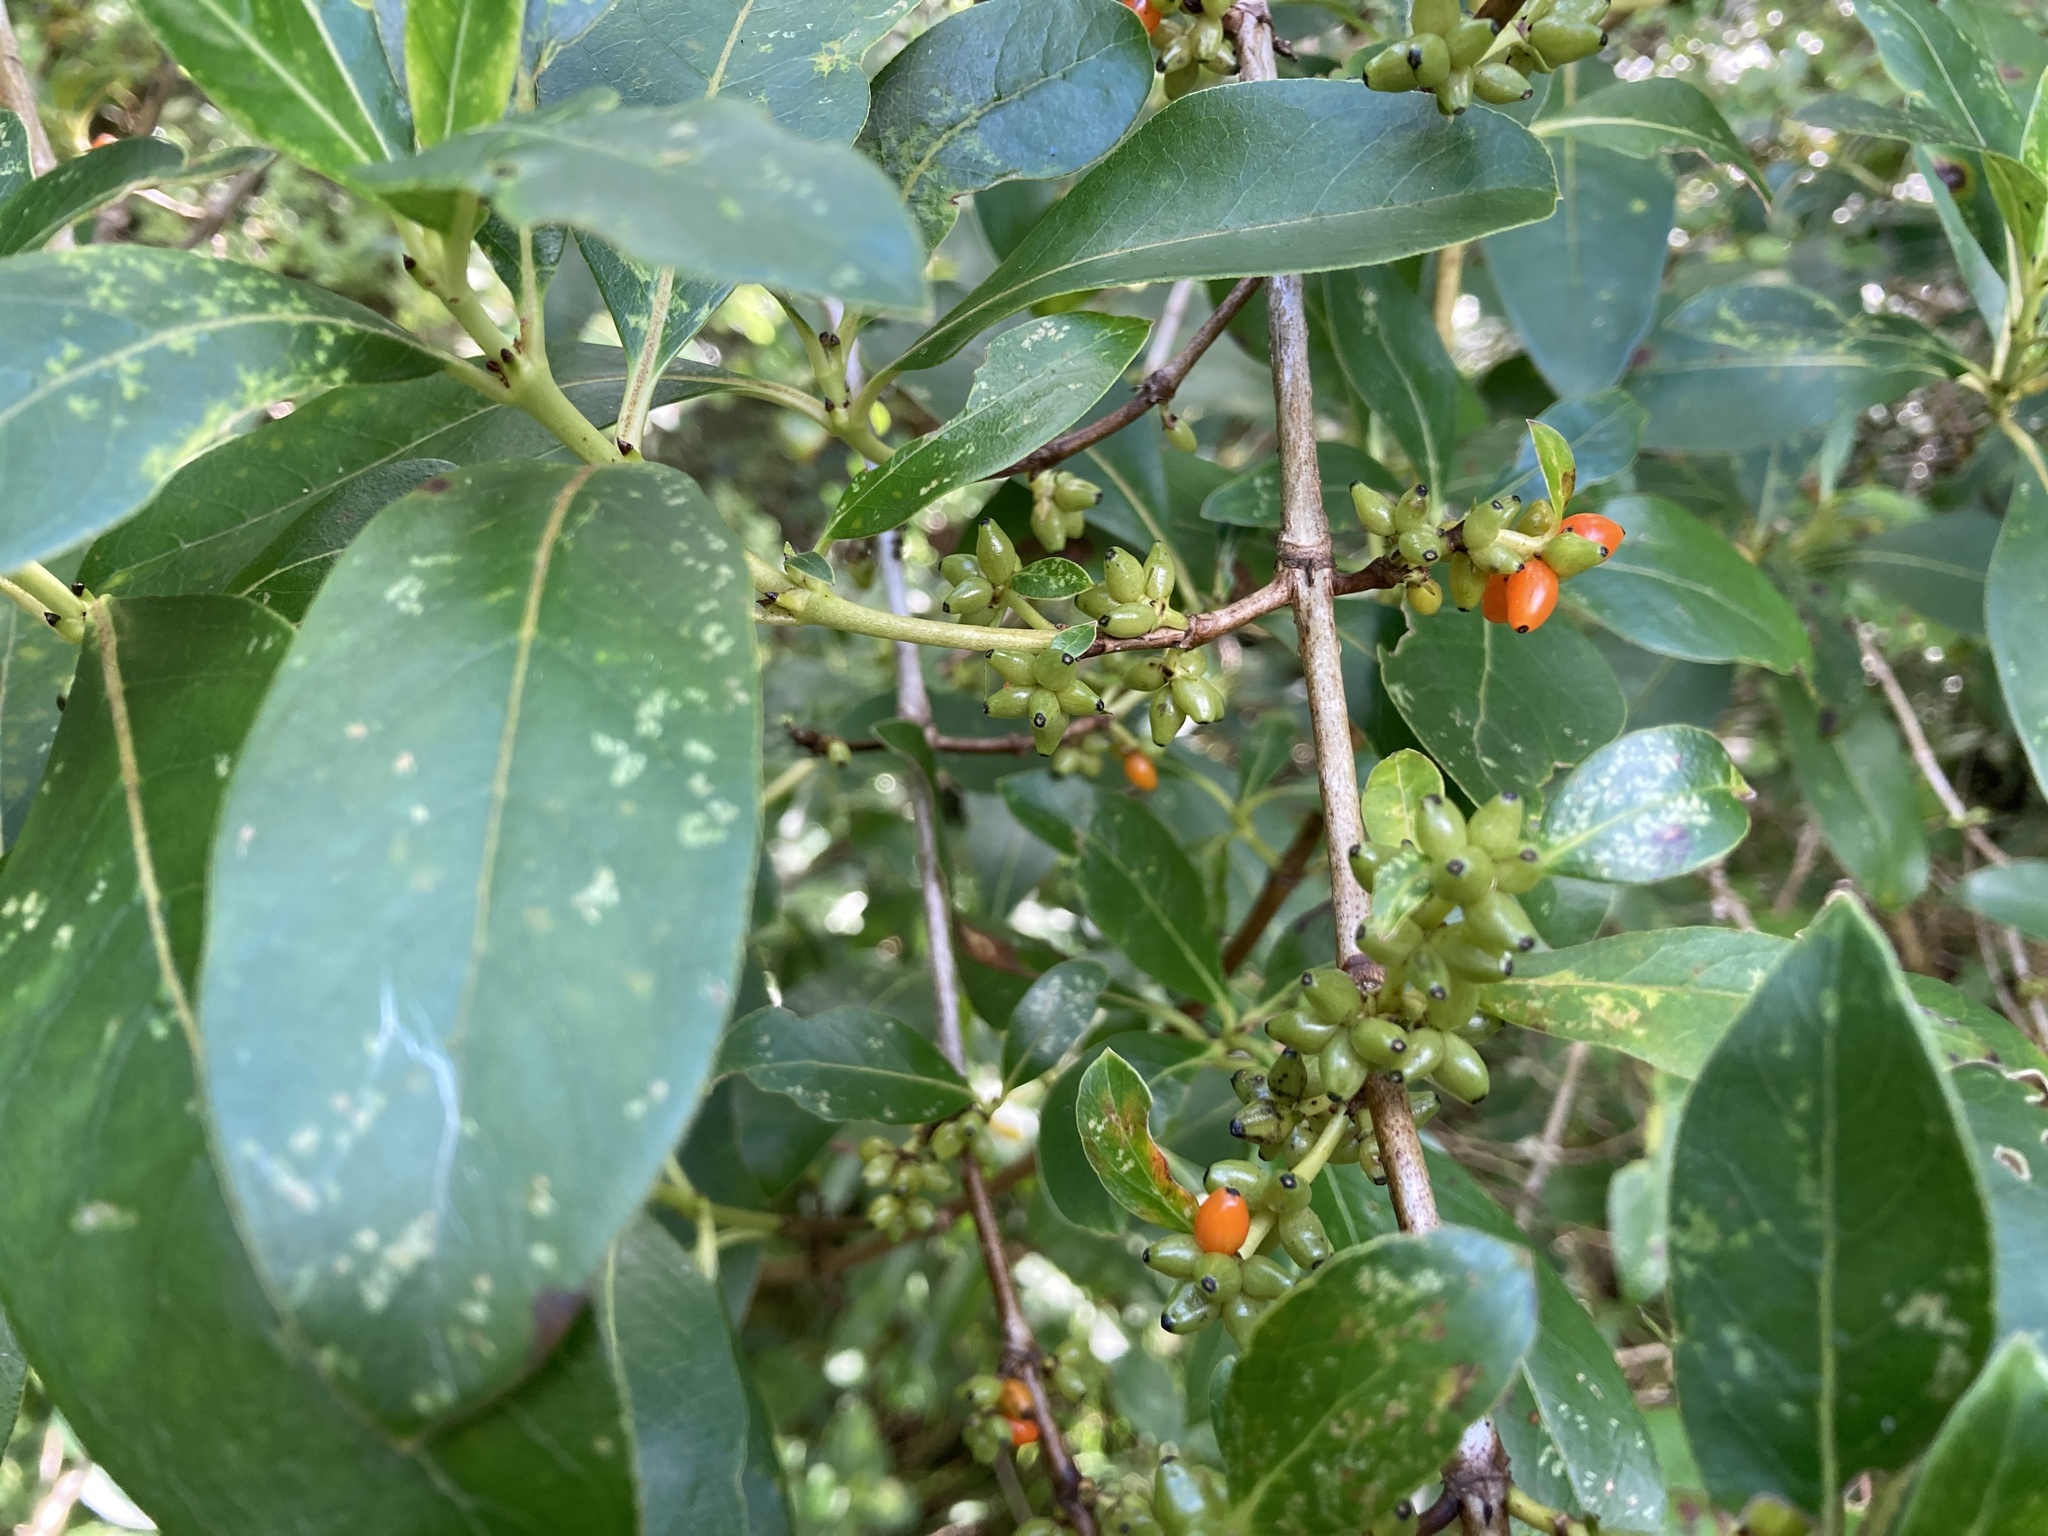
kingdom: Plantae
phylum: Tracheophyta
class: Magnoliopsida
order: Gentianales
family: Rubiaceae
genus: Coprosma
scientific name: Coprosma robusta
